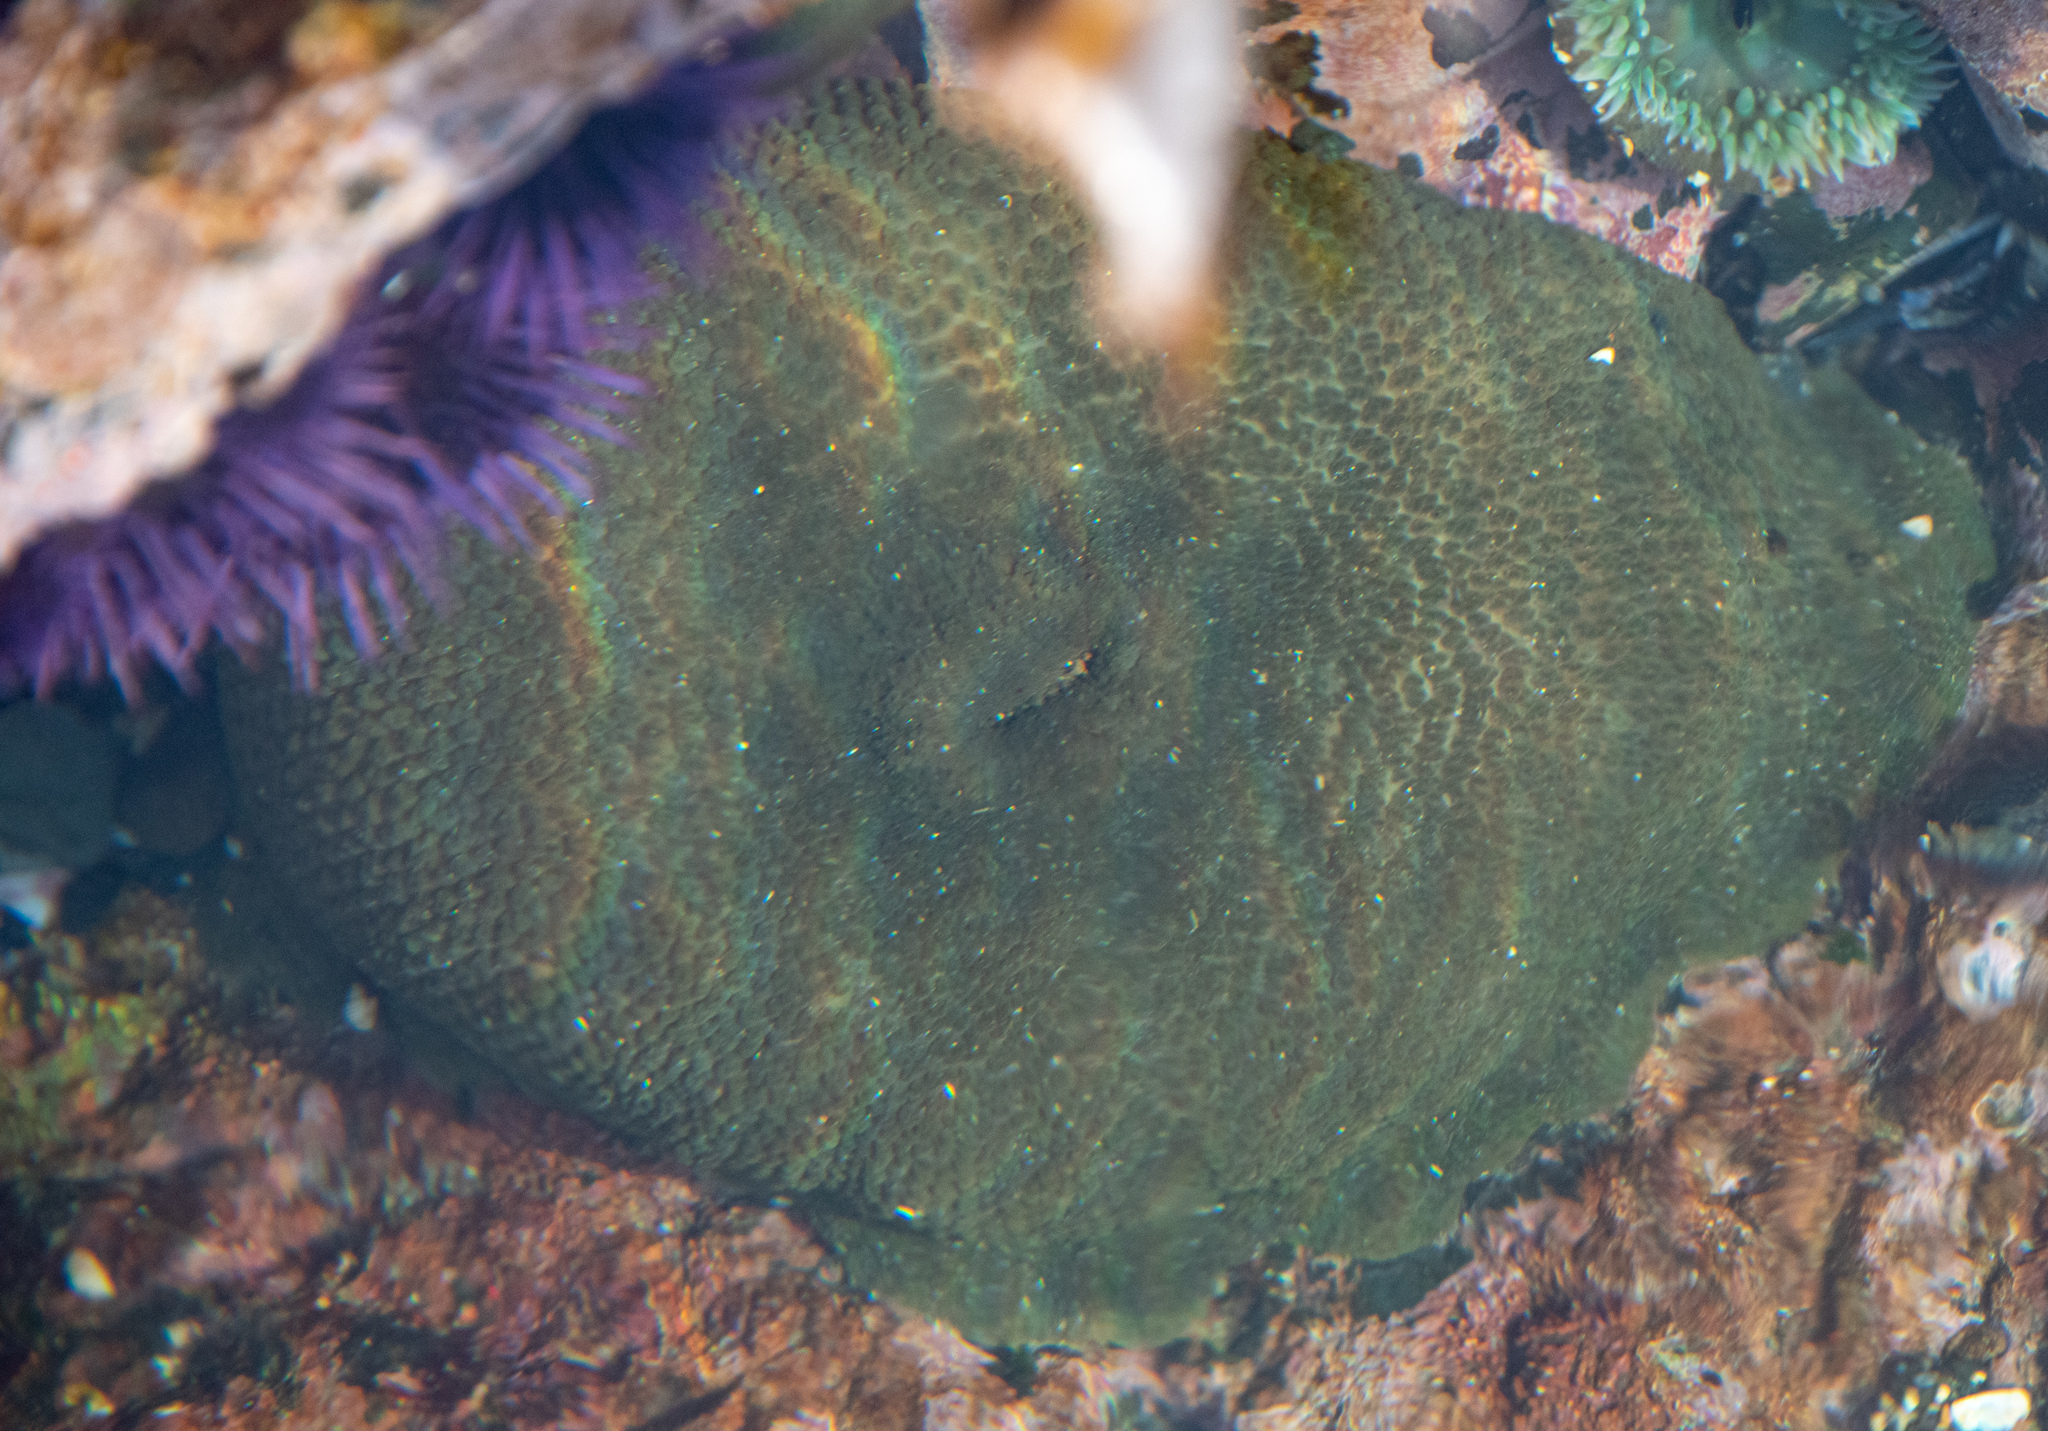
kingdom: Animalia
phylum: Cnidaria
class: Anthozoa
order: Actiniaria
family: Actiniidae
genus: Anthopleura
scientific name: Anthopleura xanthogrammica
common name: Giant green anemone
